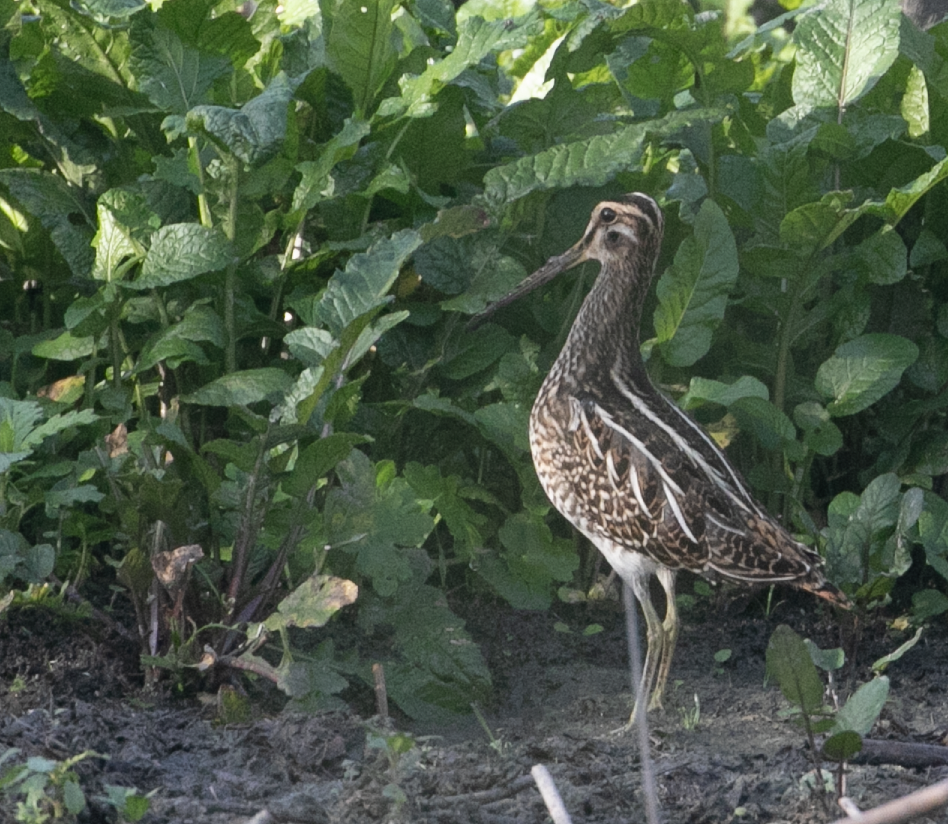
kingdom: Animalia
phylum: Chordata
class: Aves
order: Charadriiformes
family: Scolopacidae
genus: Gallinago
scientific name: Gallinago gallinago
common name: Common snipe
